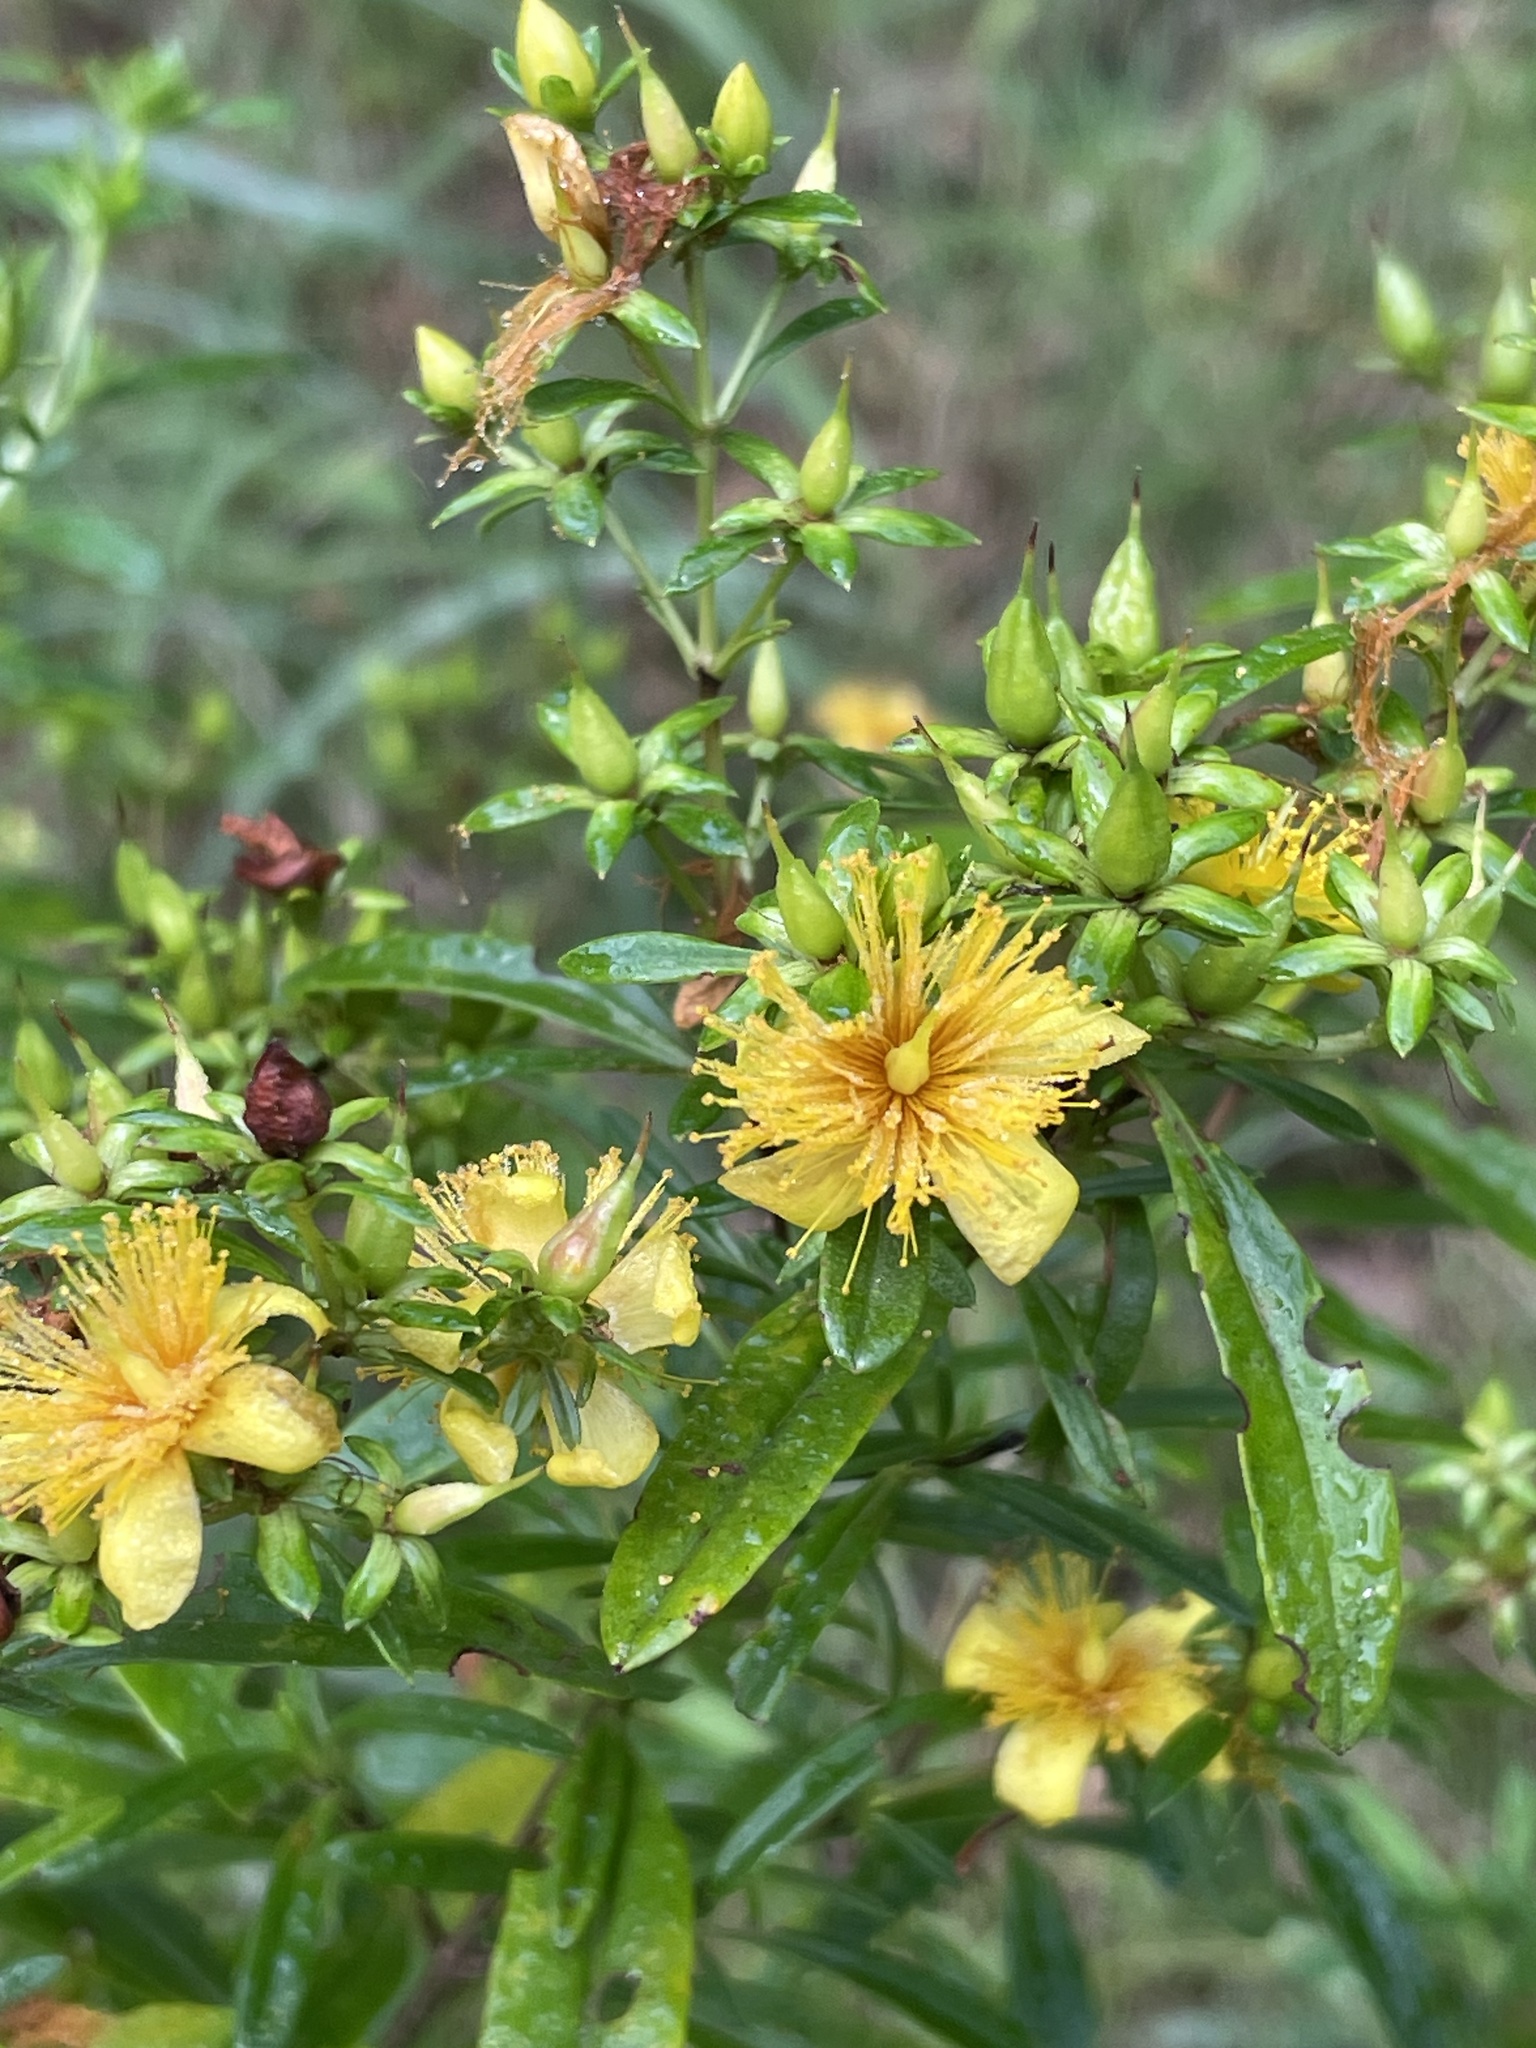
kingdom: Plantae
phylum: Tracheophyta
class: Magnoliopsida
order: Malpighiales
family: Hypericaceae
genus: Hypericum
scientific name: Hypericum prolificum
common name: Shrubby st. john's-wort
